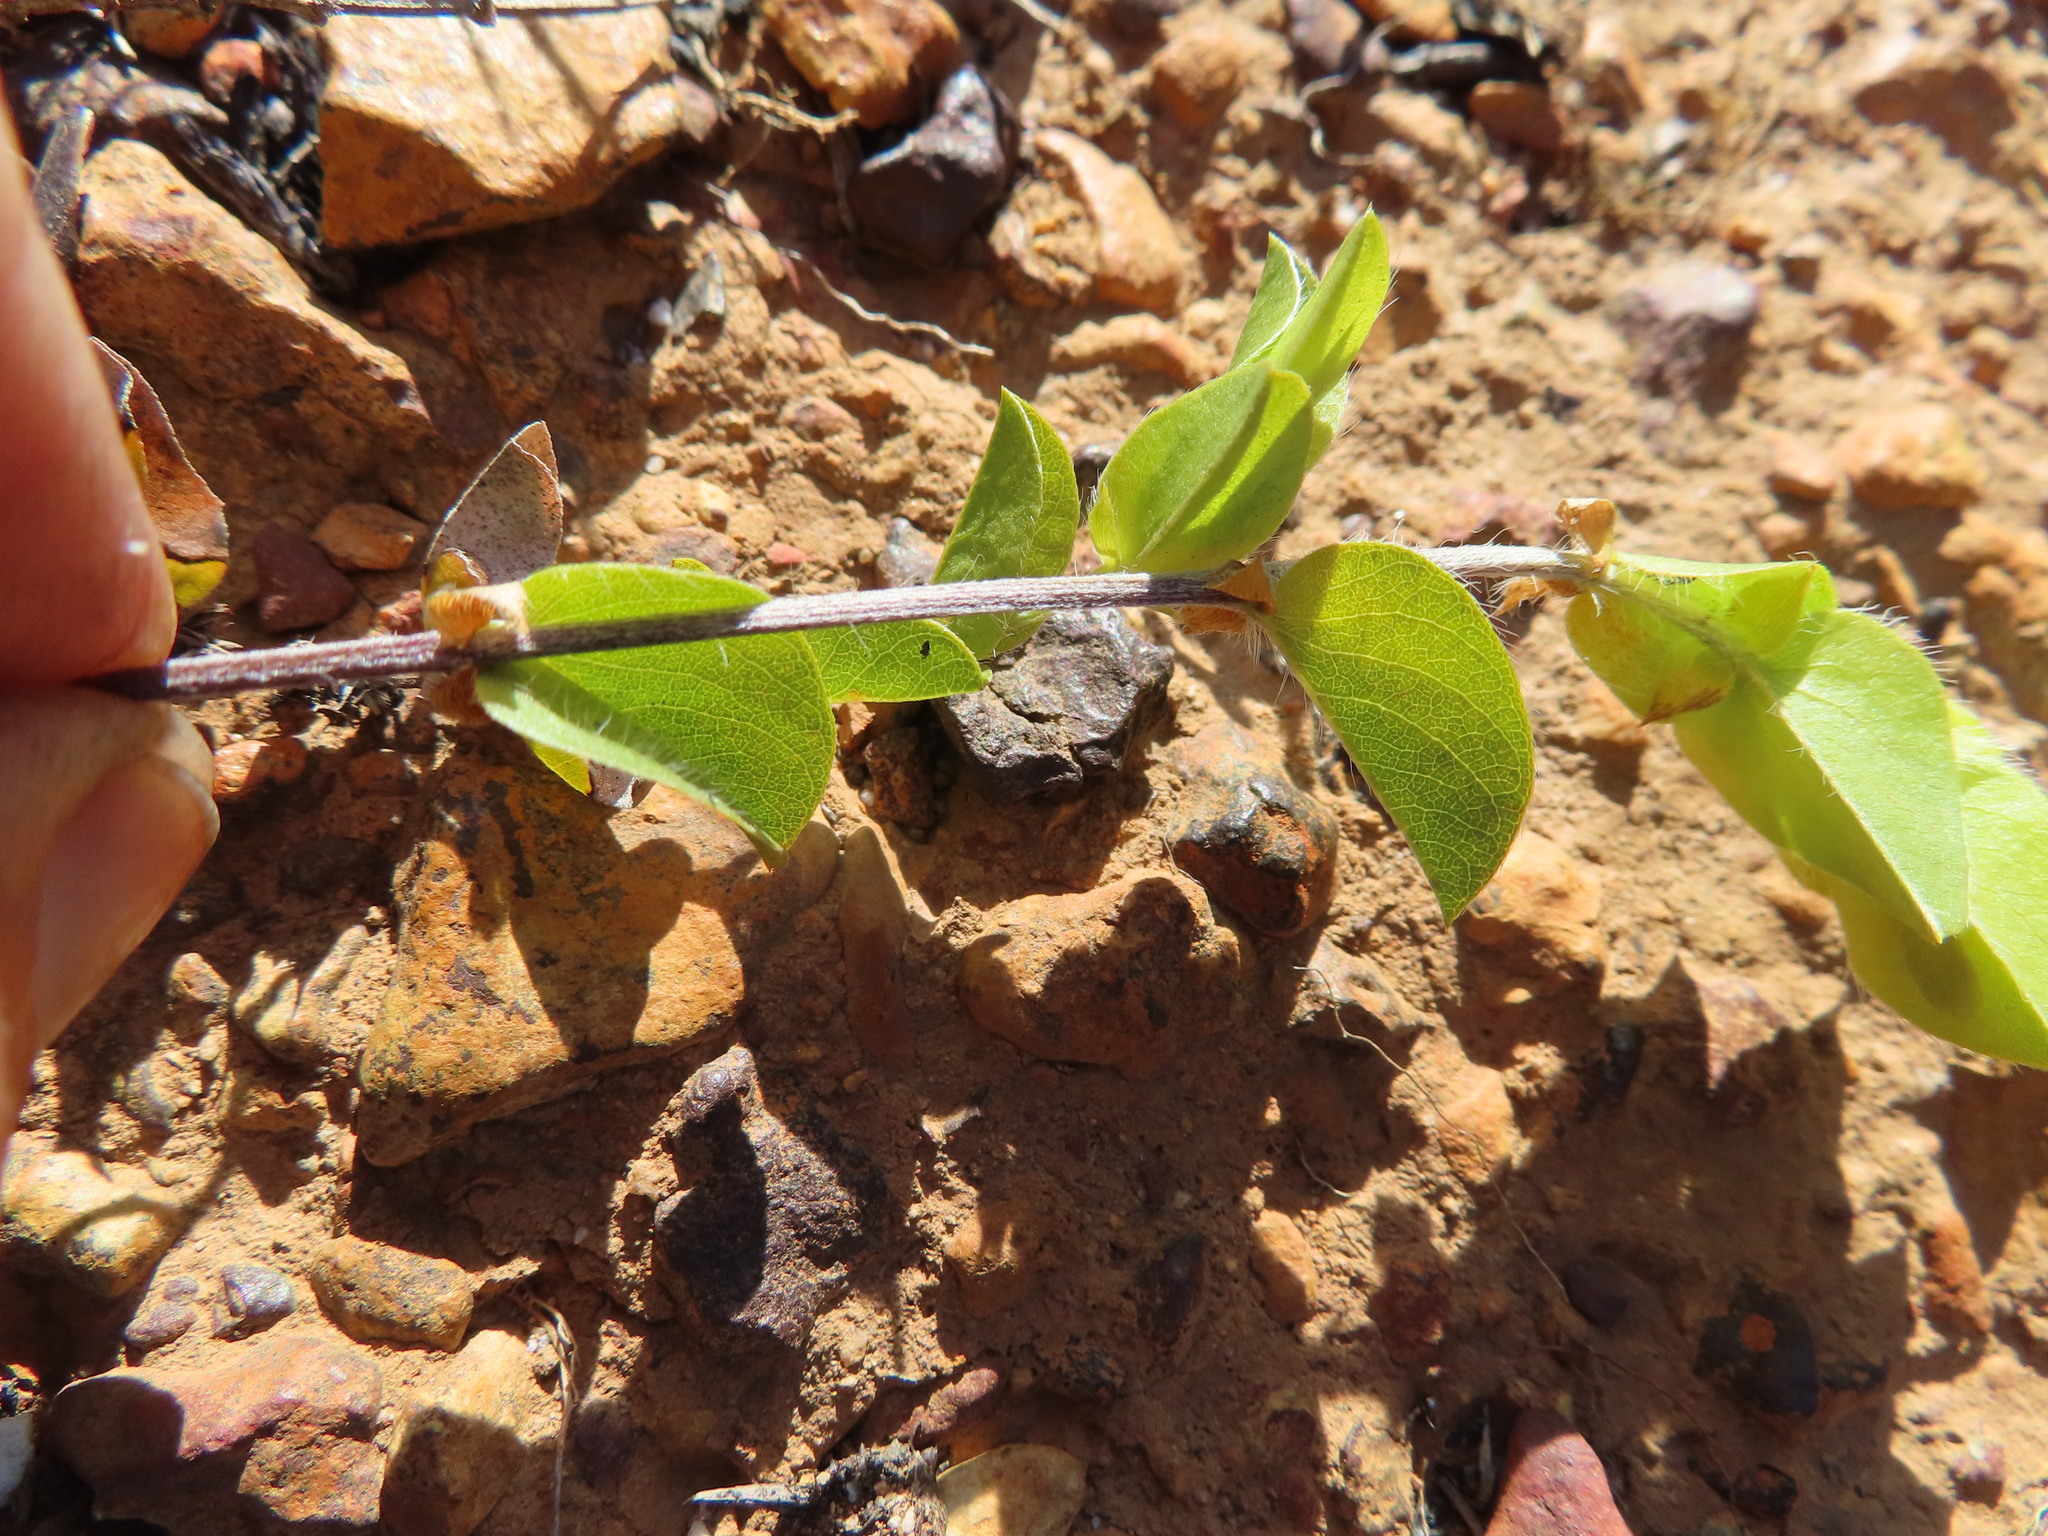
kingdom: Plantae
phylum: Tracheophyta
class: Magnoliopsida
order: Fabales
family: Fabaceae
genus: Psoralea
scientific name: Psoralea imbricata
